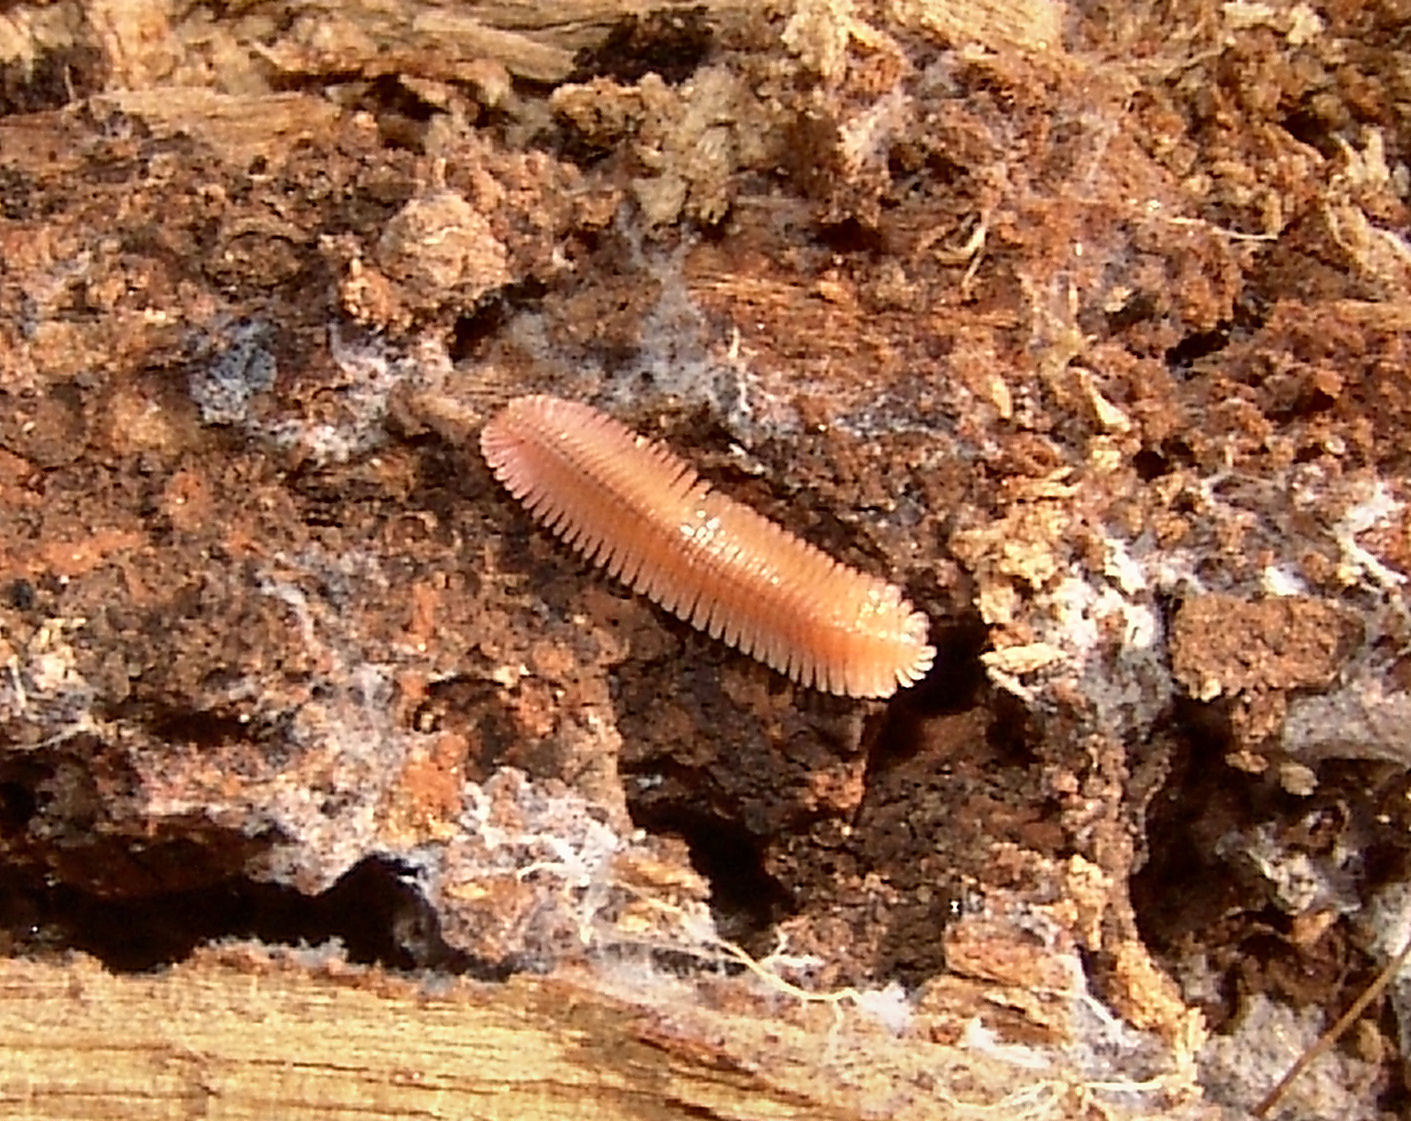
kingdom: Animalia
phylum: Arthropoda
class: Diplopoda
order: Platydesmida
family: Andrognathidae
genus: Brachycybe
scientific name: Brachycybe lecontii
